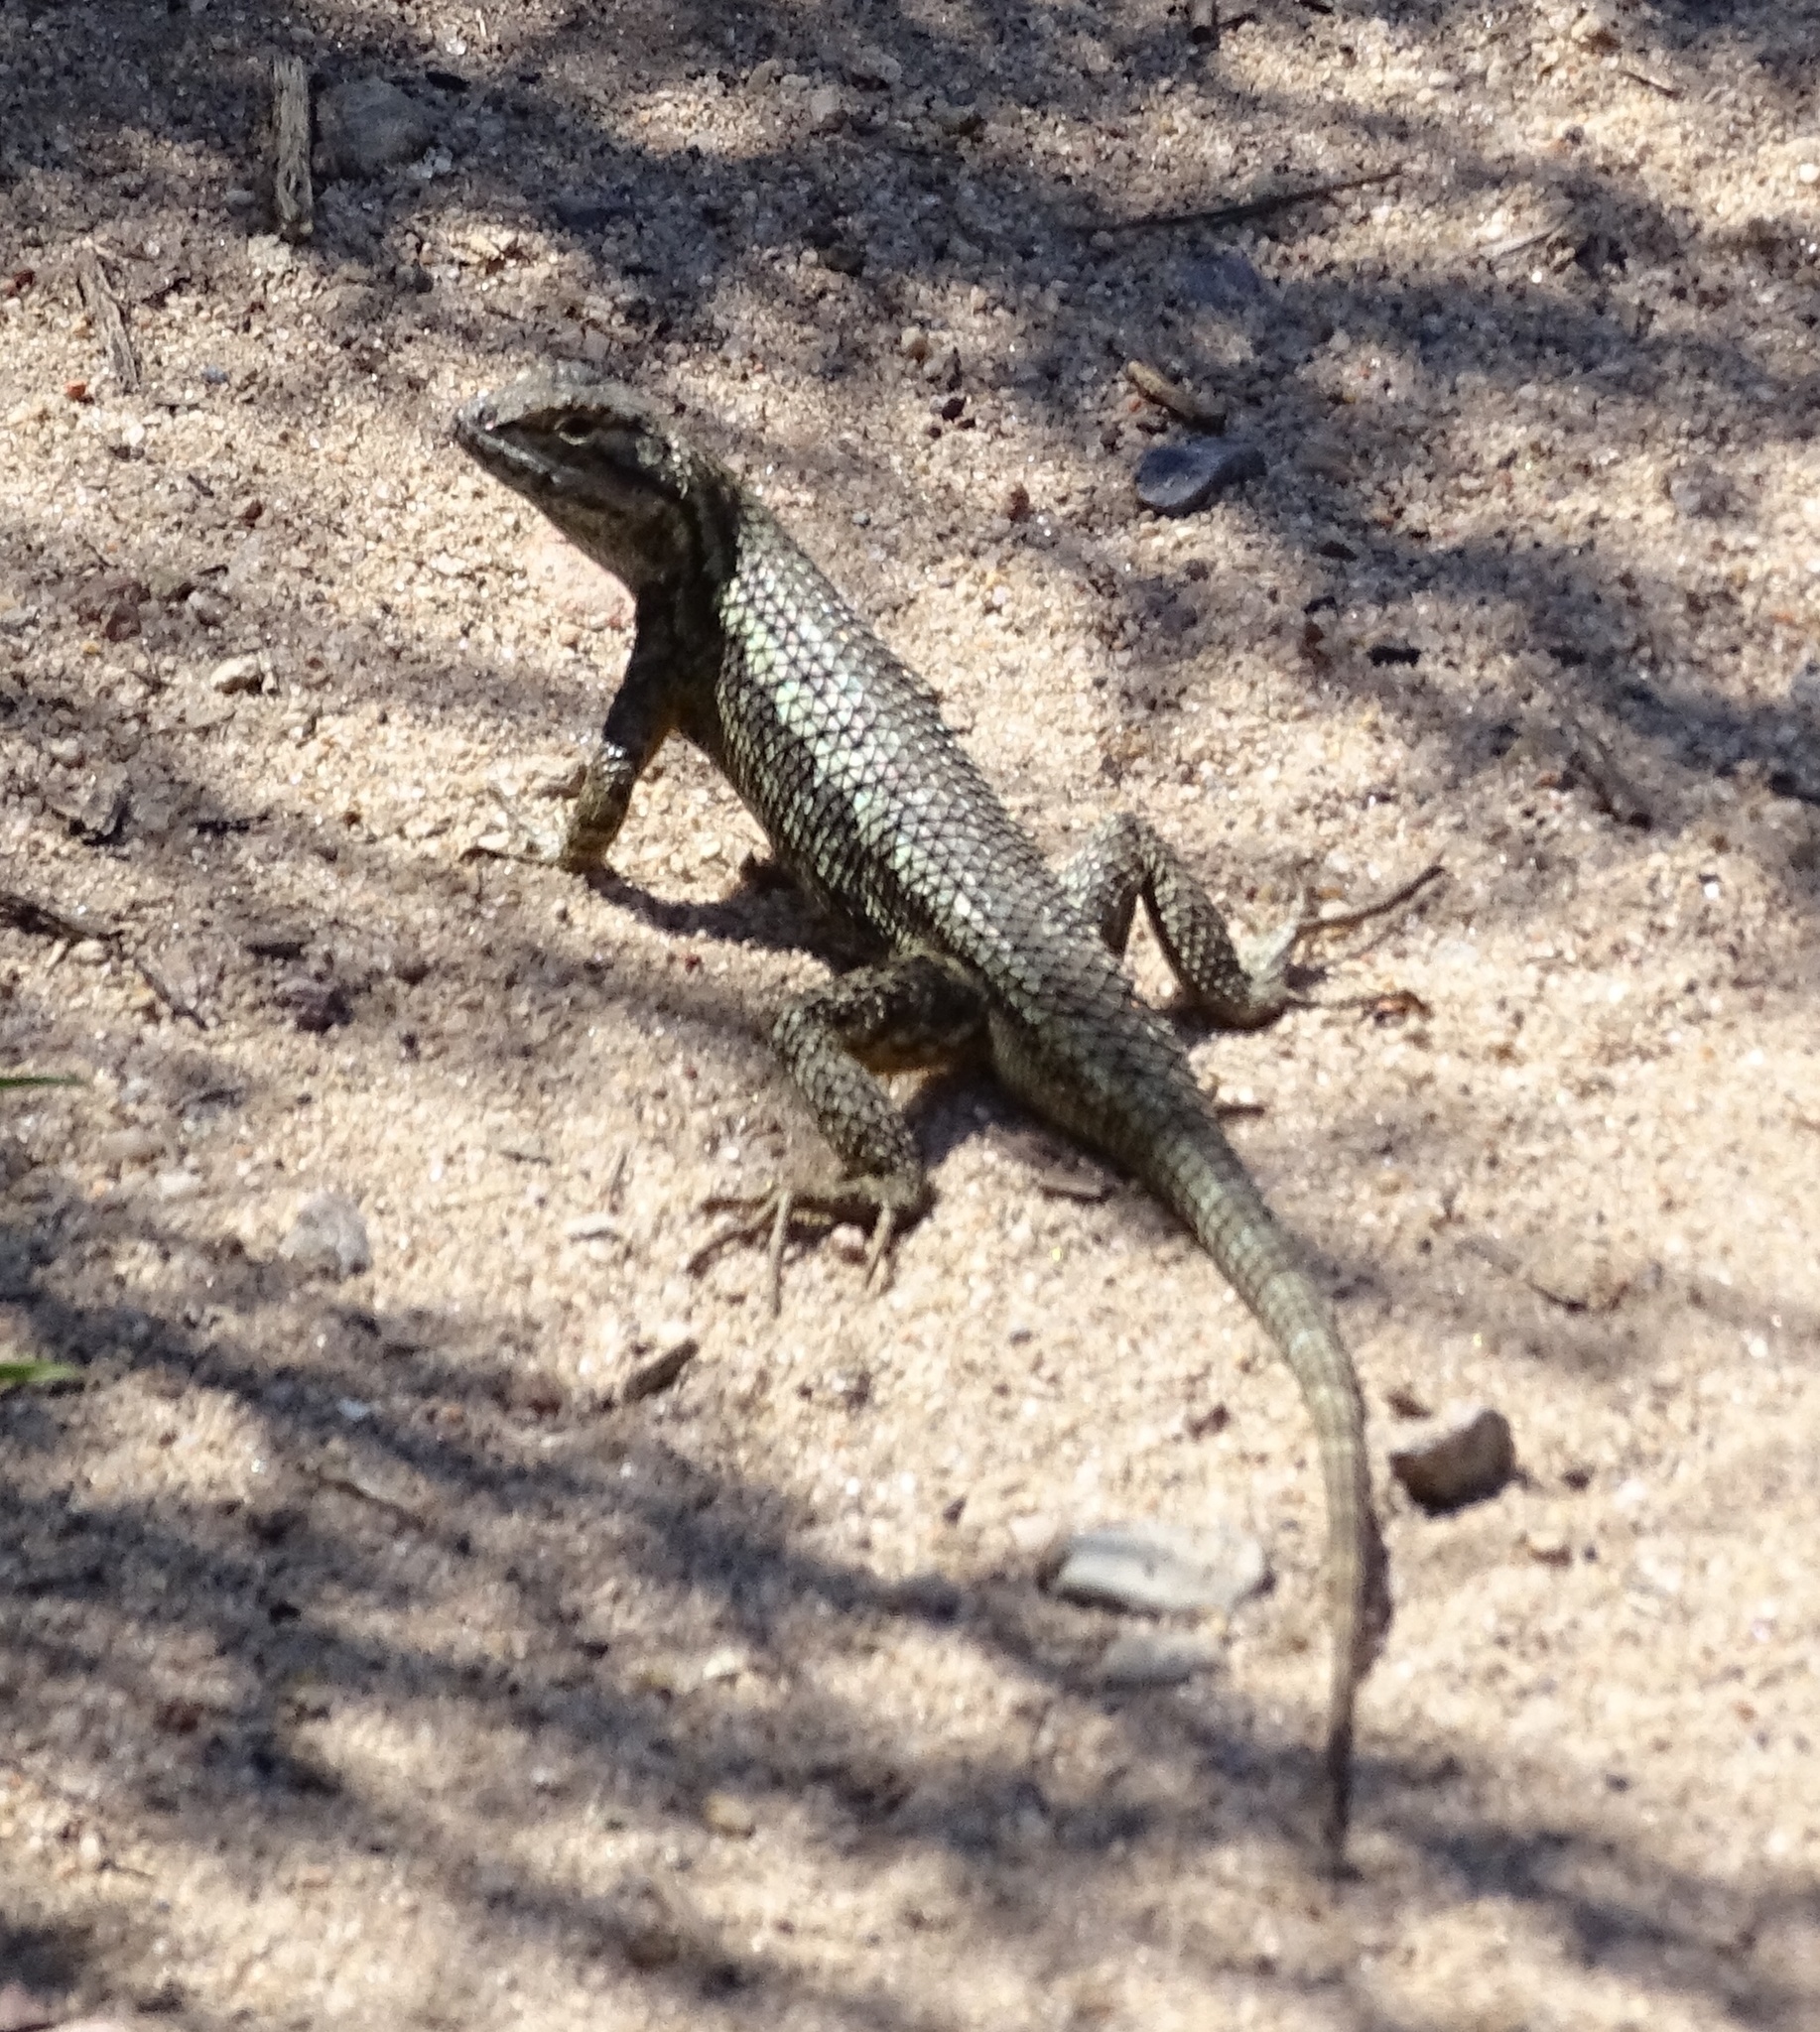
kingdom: Animalia
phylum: Chordata
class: Squamata
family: Phrynosomatidae
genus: Sceloporus
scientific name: Sceloporus occidentalis
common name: Western fence lizard
